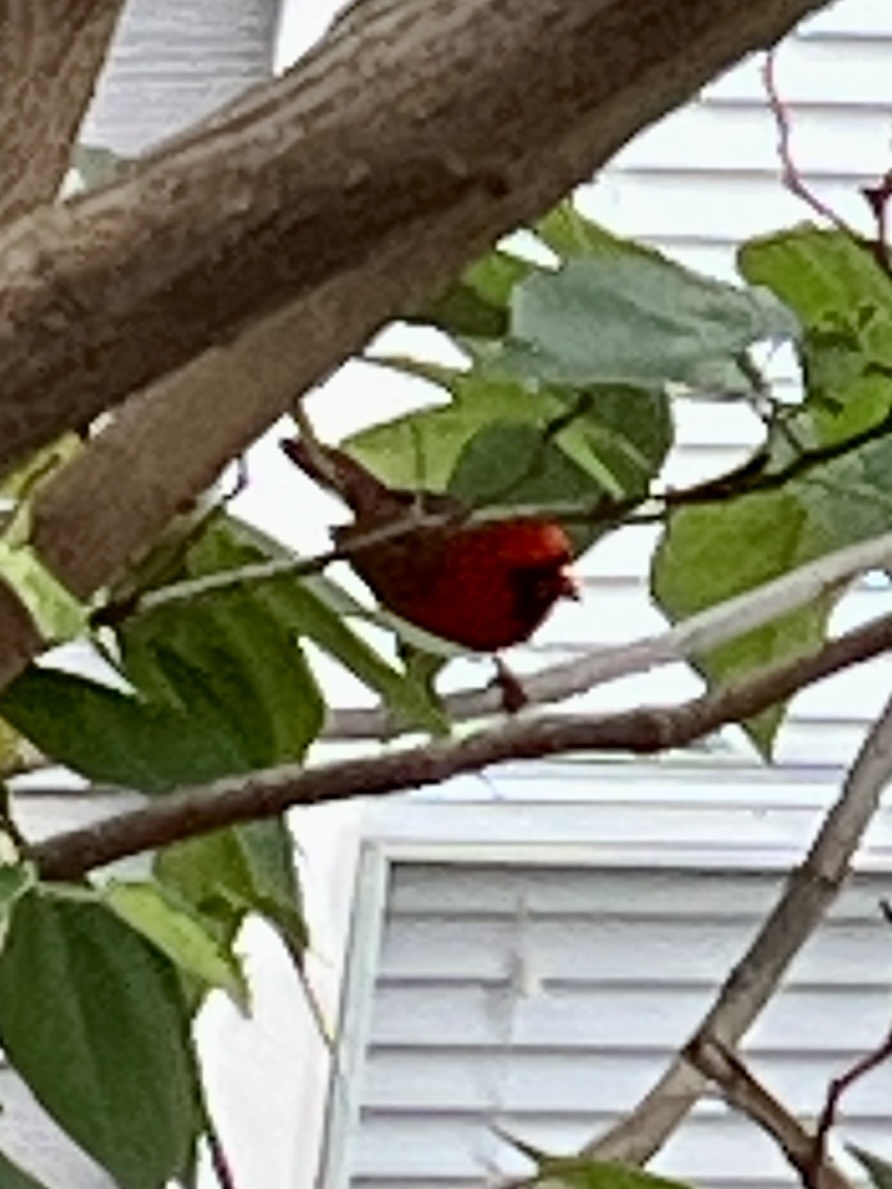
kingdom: Animalia
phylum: Chordata
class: Aves
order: Passeriformes
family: Cardinalidae
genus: Cardinalis
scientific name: Cardinalis cardinalis
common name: Northern cardinal
